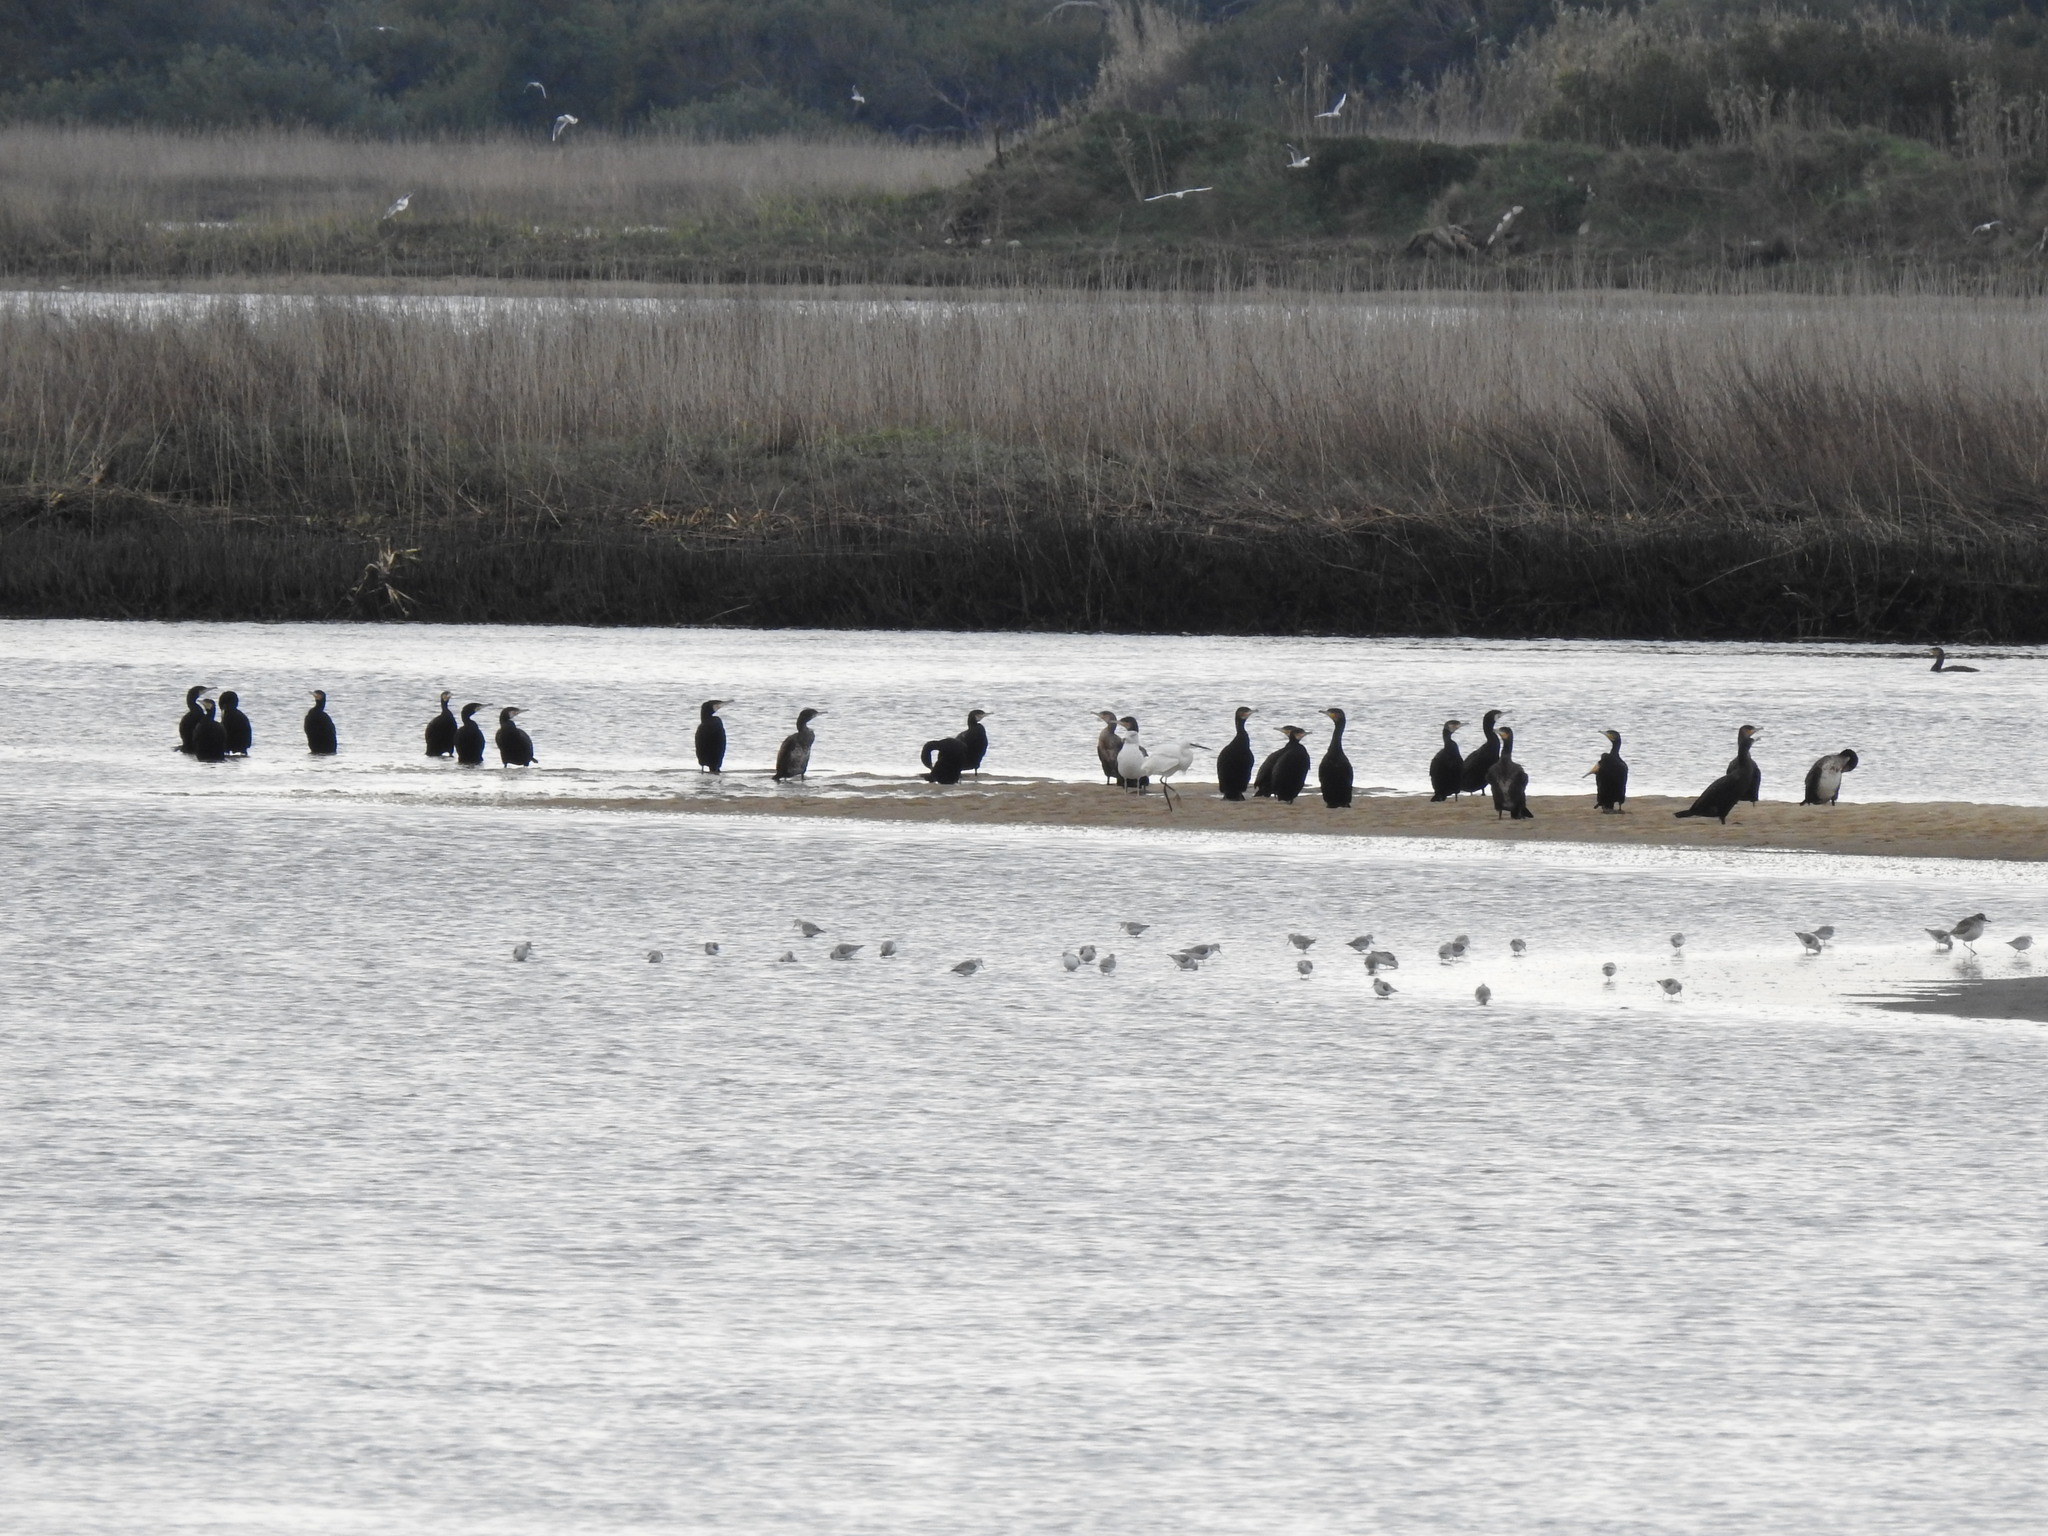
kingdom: Animalia
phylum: Chordata
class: Aves
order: Pelecaniformes
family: Ardeidae
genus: Egretta
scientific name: Egretta garzetta
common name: Little egret
